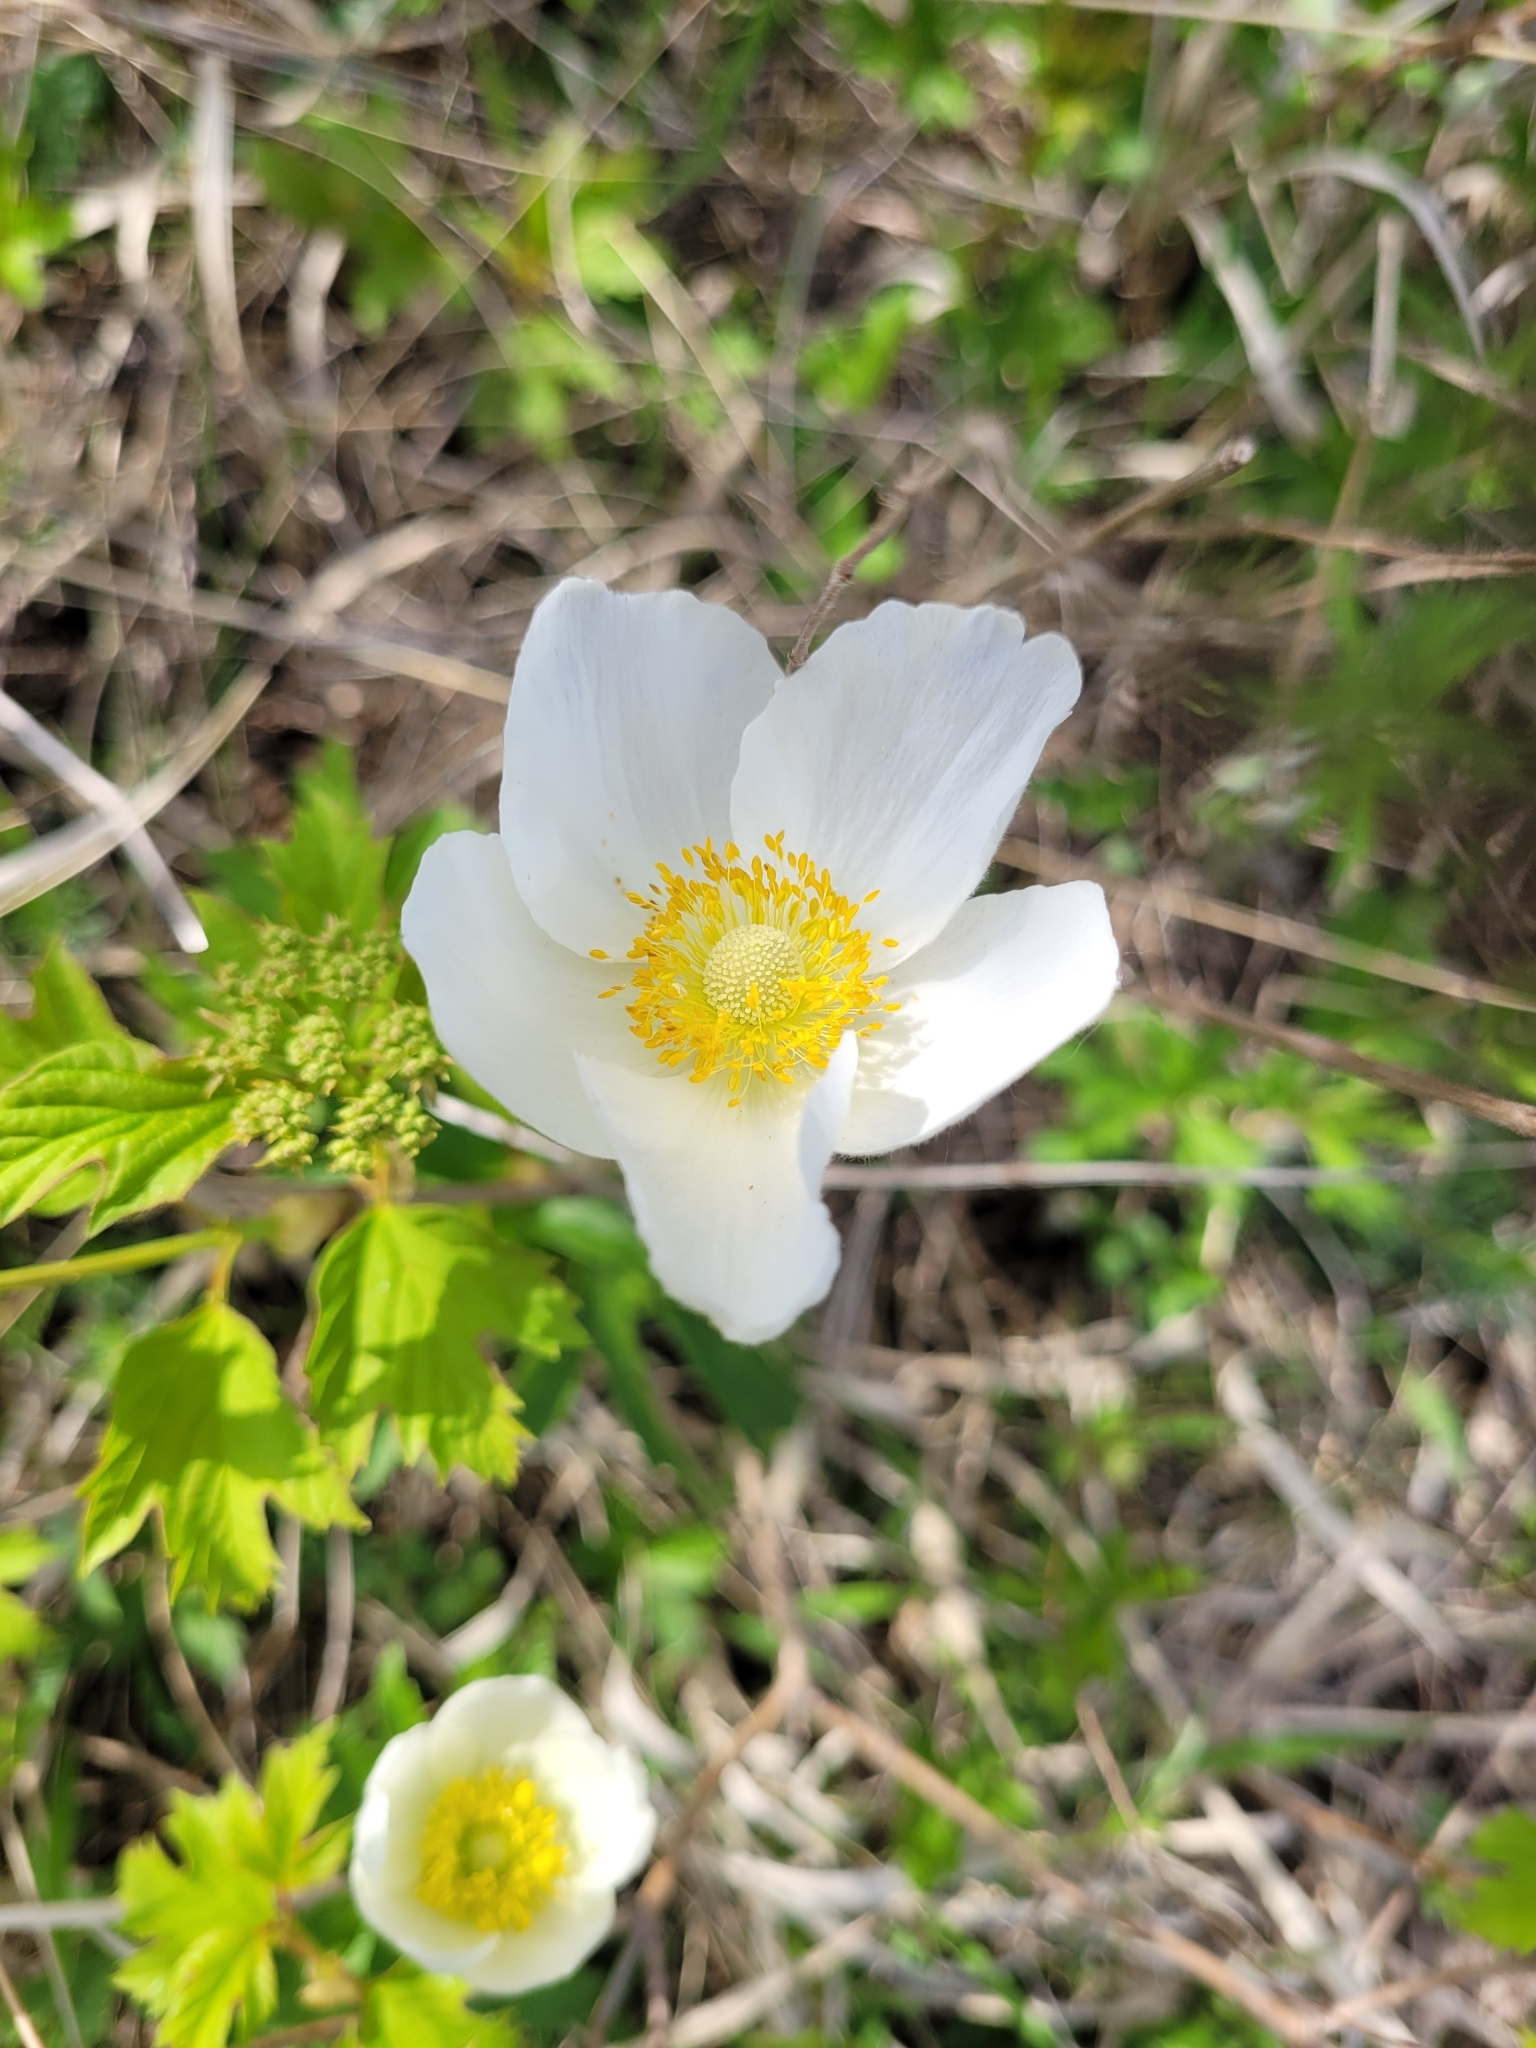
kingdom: Plantae
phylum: Tracheophyta
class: Magnoliopsida
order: Ranunculales
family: Ranunculaceae
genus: Anemone
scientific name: Anemone sylvestris
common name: Snowdrop anemone
